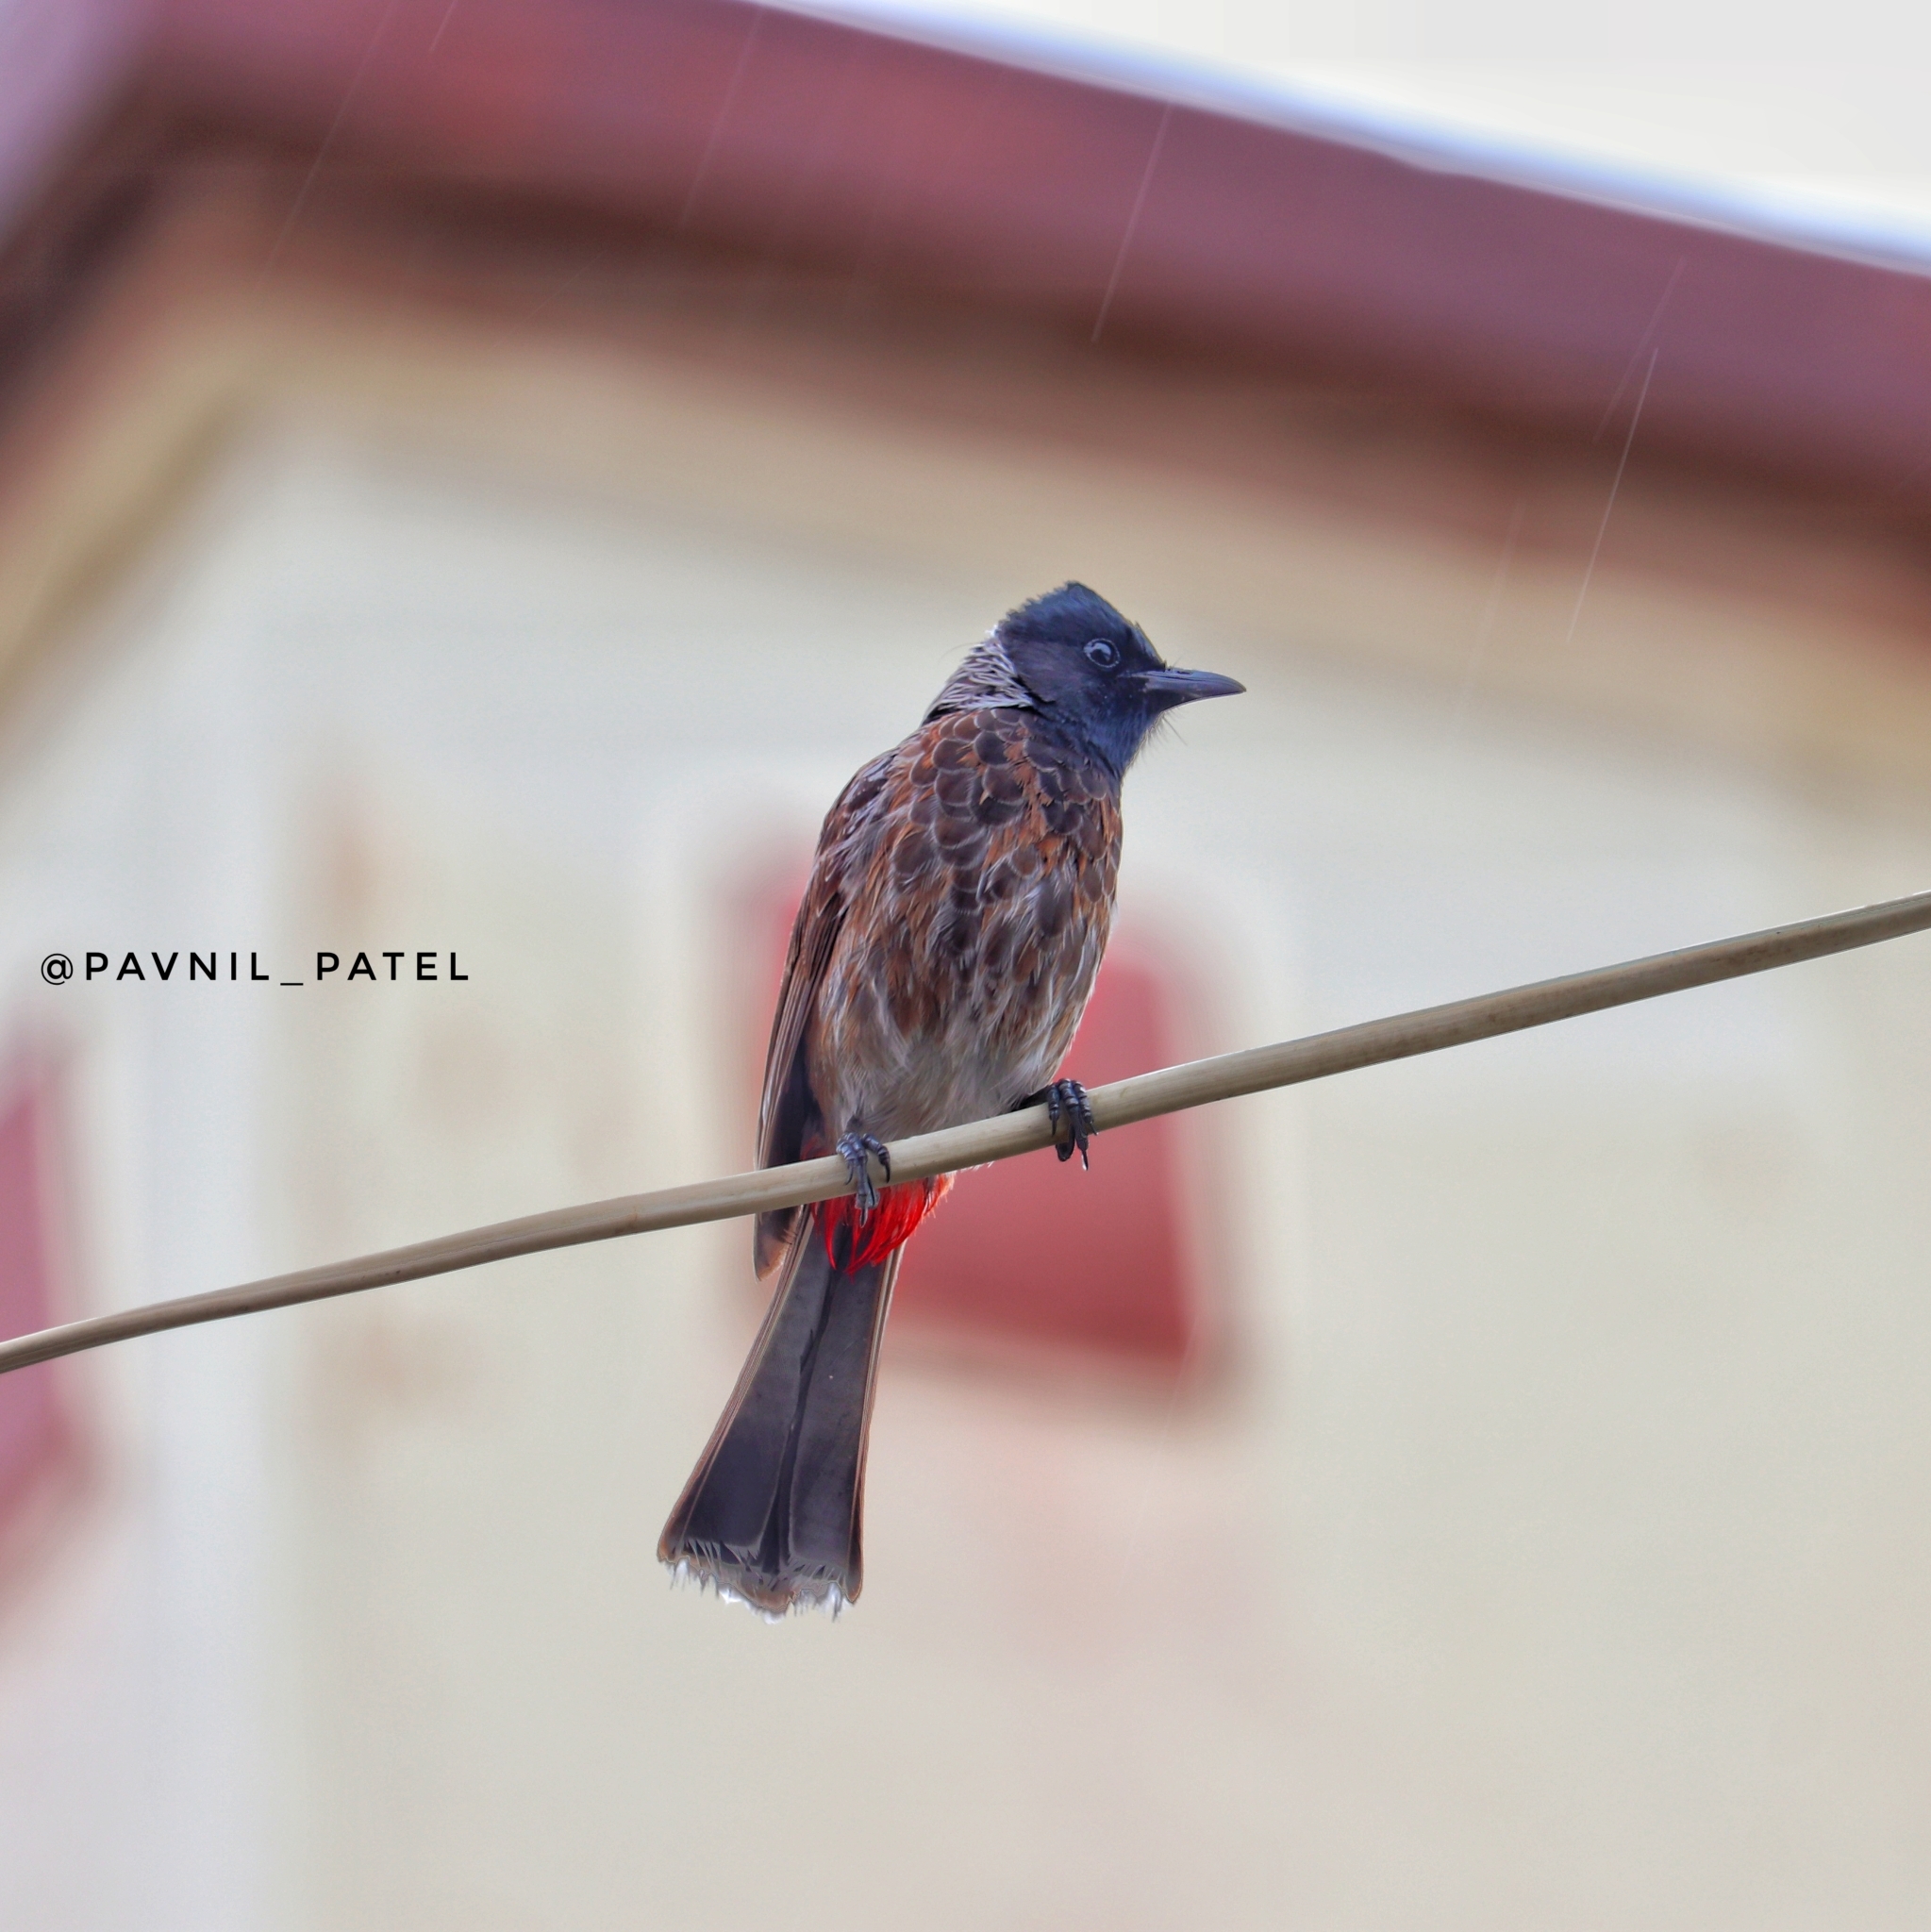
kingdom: Animalia
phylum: Chordata
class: Aves
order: Passeriformes
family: Pycnonotidae
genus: Pycnonotus
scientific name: Pycnonotus cafer
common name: Red-vented bulbul
